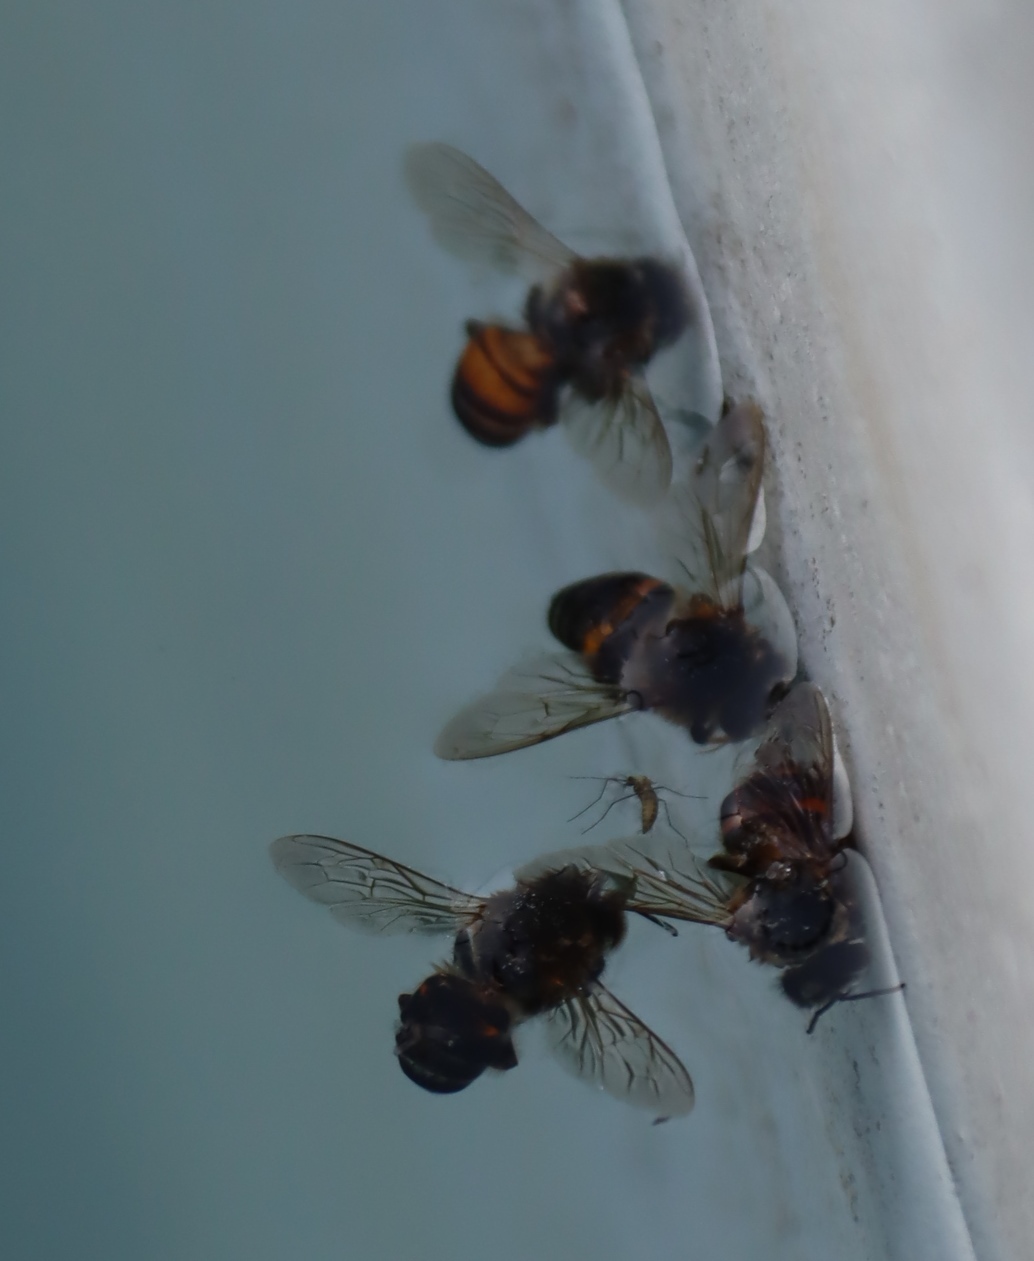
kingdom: Animalia
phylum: Arthropoda
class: Insecta
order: Hymenoptera
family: Apidae
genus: Apis
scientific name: Apis mellifera
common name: Honey bee
